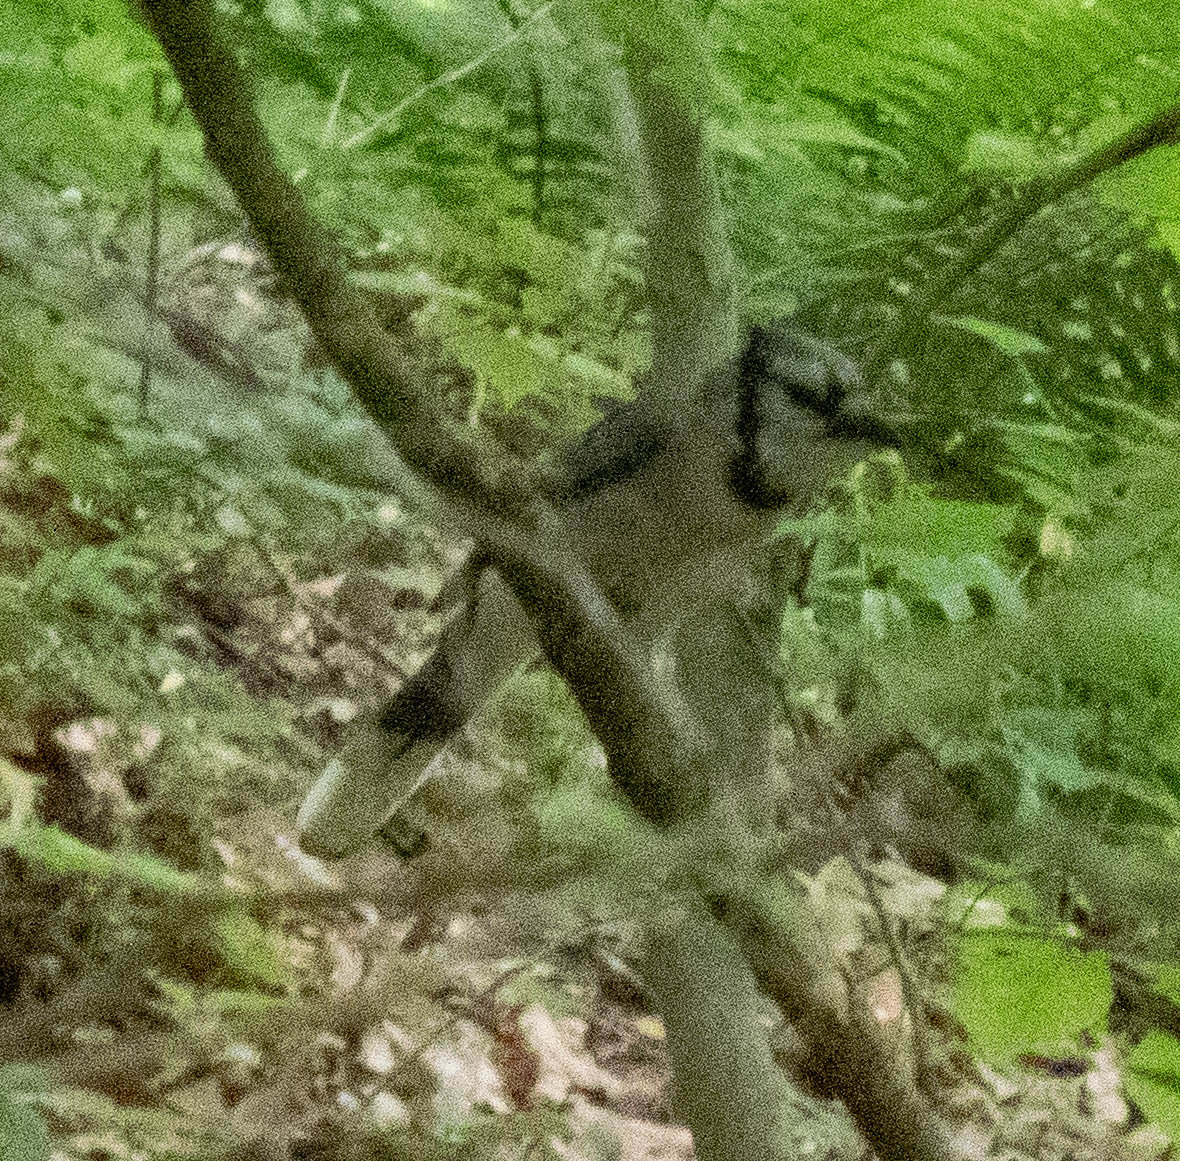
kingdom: Animalia
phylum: Chordata
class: Aves
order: Passeriformes
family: Corvidae
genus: Cyanocitta
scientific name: Cyanocitta cristata
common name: Blue jay
